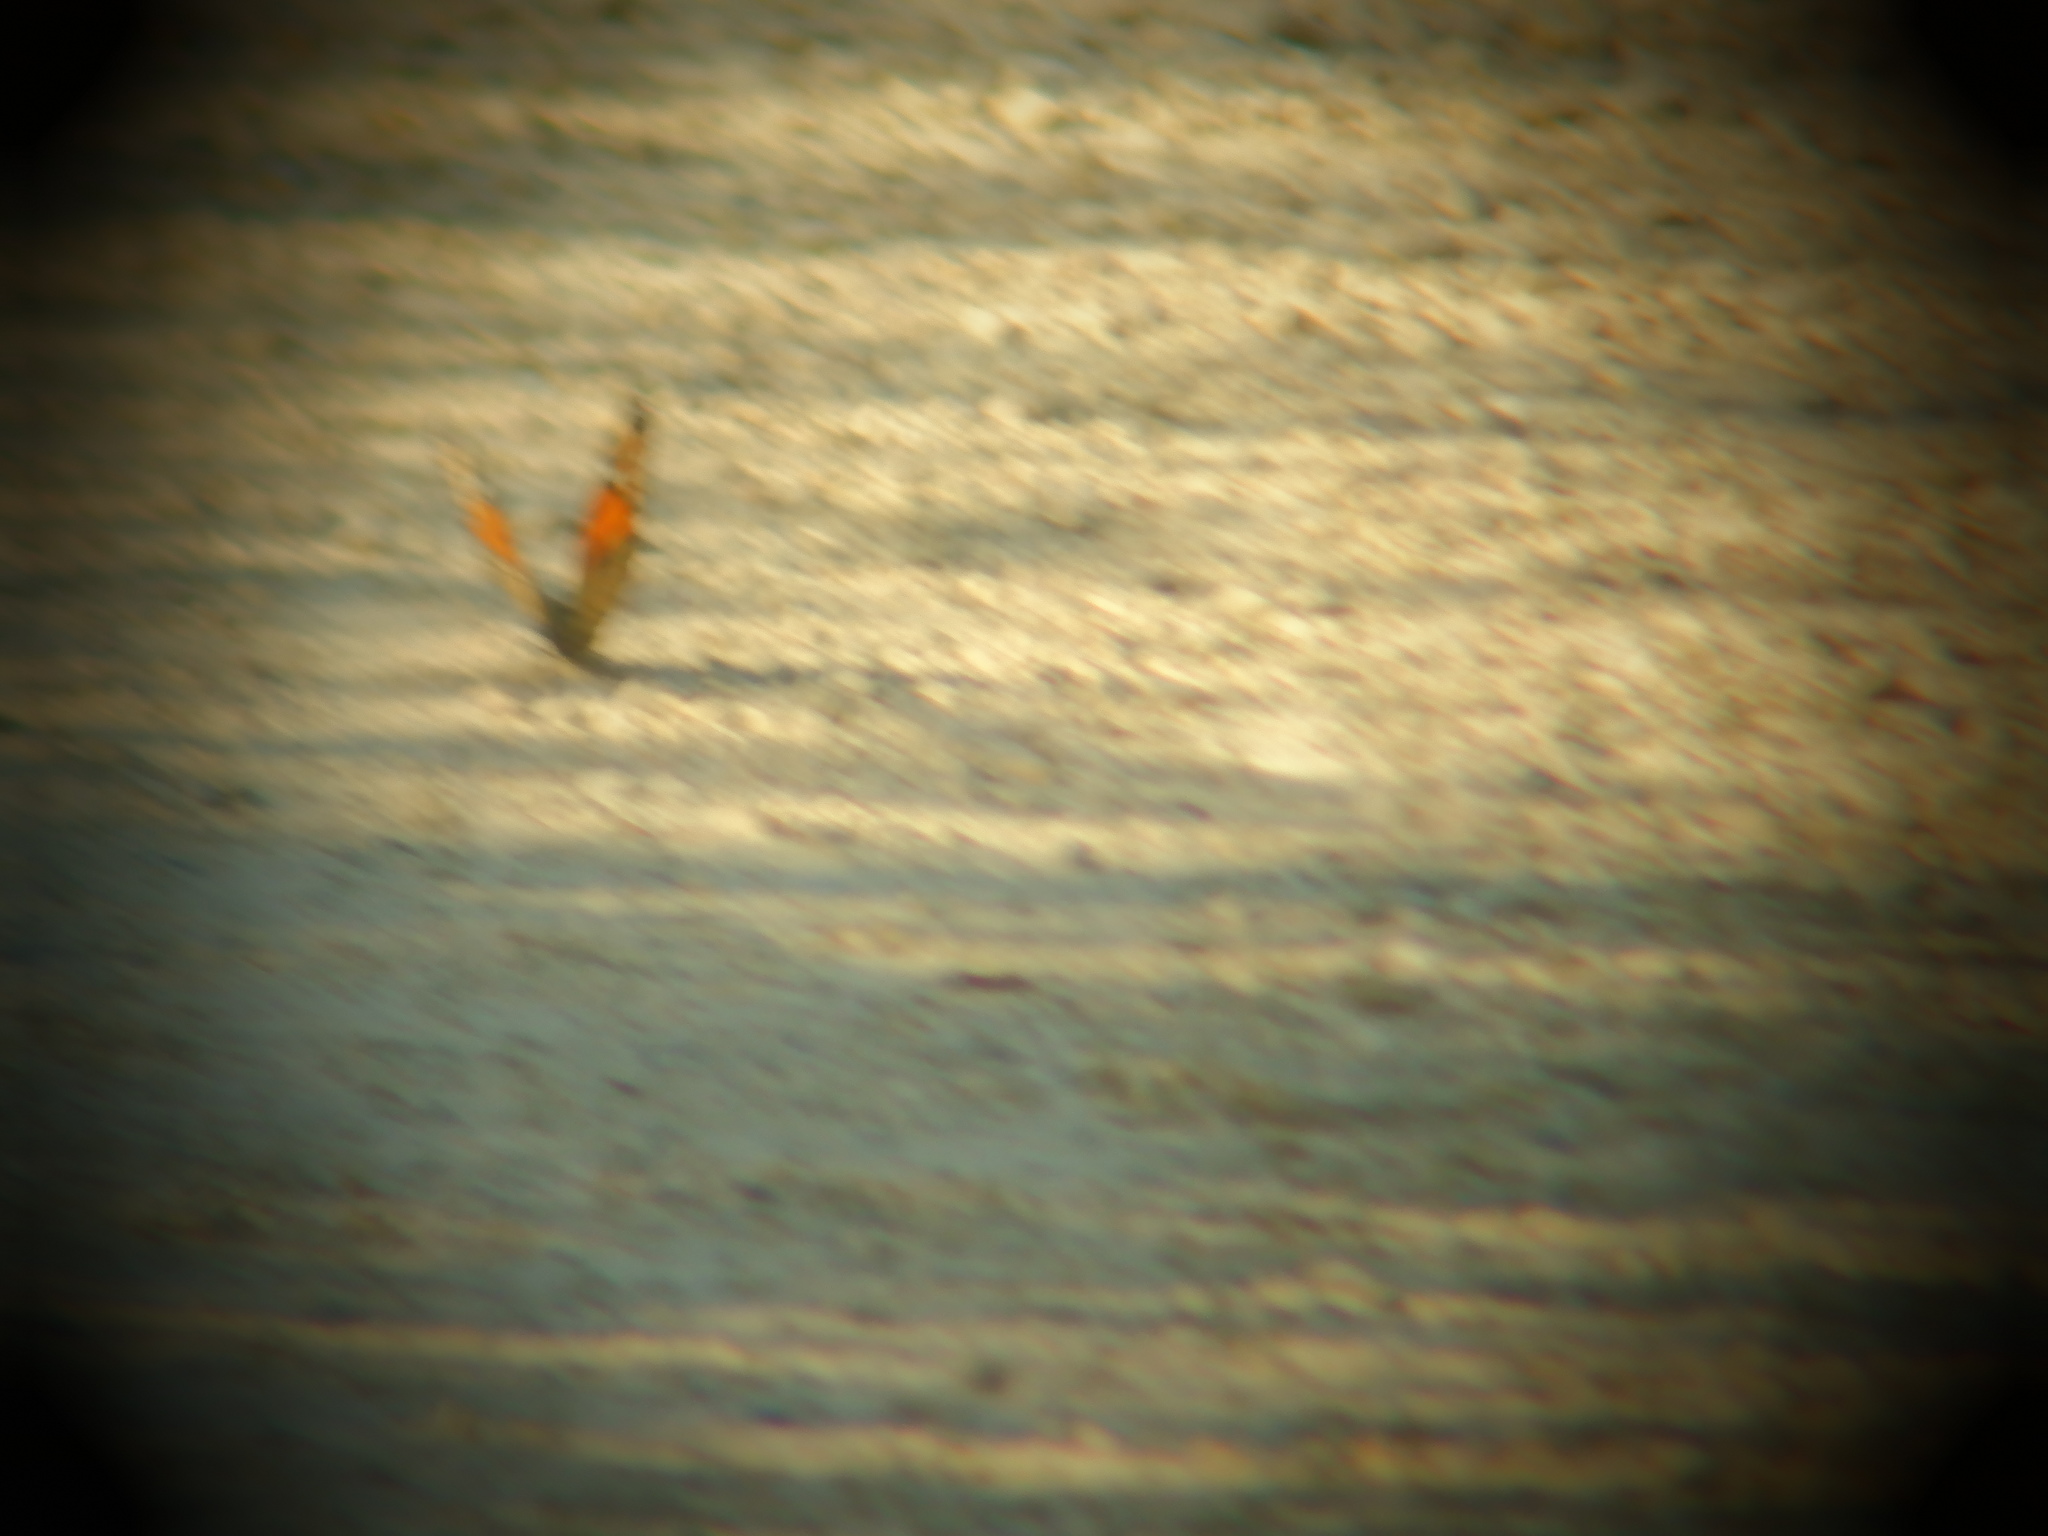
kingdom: Animalia
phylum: Arthropoda
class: Insecta
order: Lepidoptera
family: Nymphalidae
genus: Limenitis
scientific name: Limenitis archippus
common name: Viceroy
